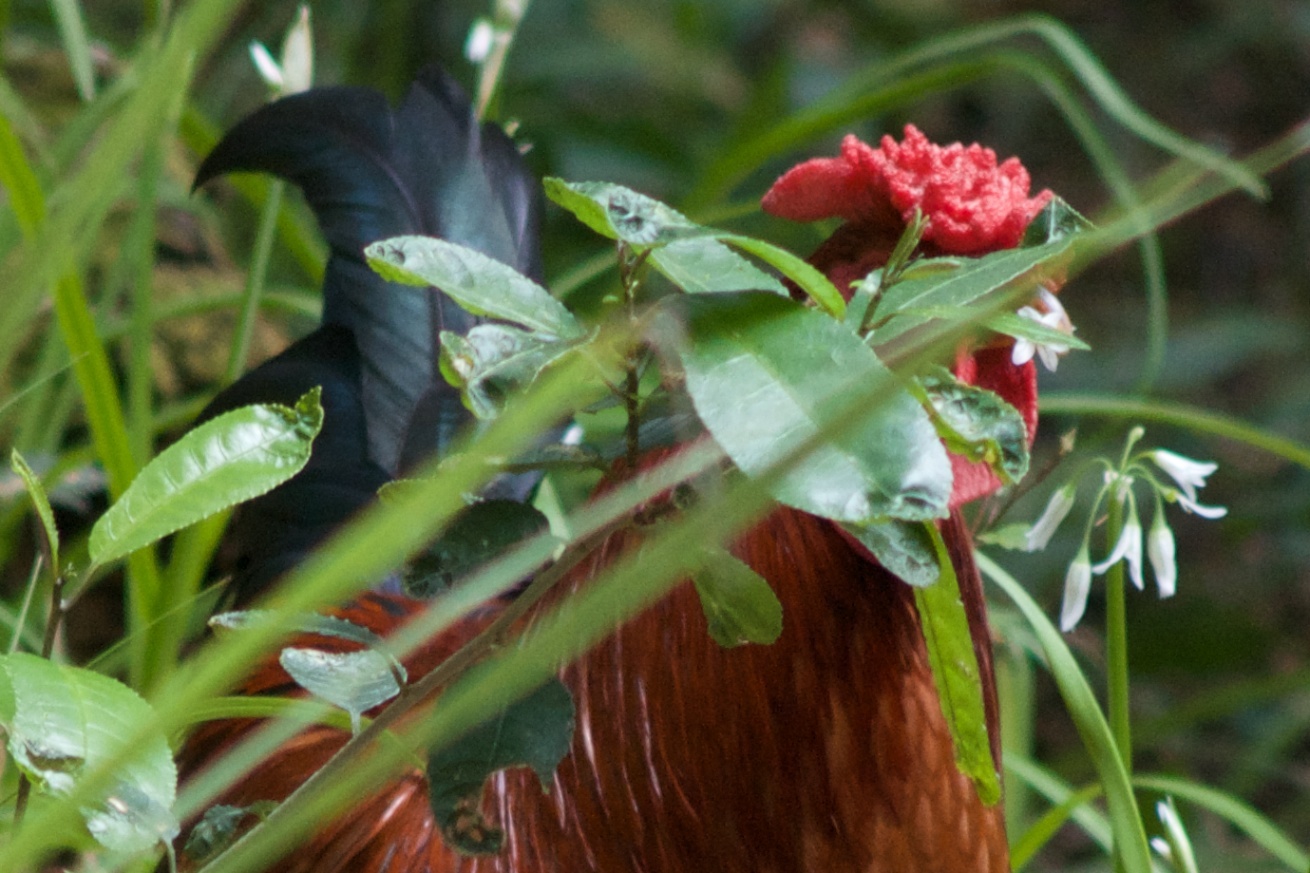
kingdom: Plantae
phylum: Tracheophyta
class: Liliopsida
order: Asparagales
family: Amaryllidaceae
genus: Allium
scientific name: Allium triquetrum
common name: Three-cornered garlic
